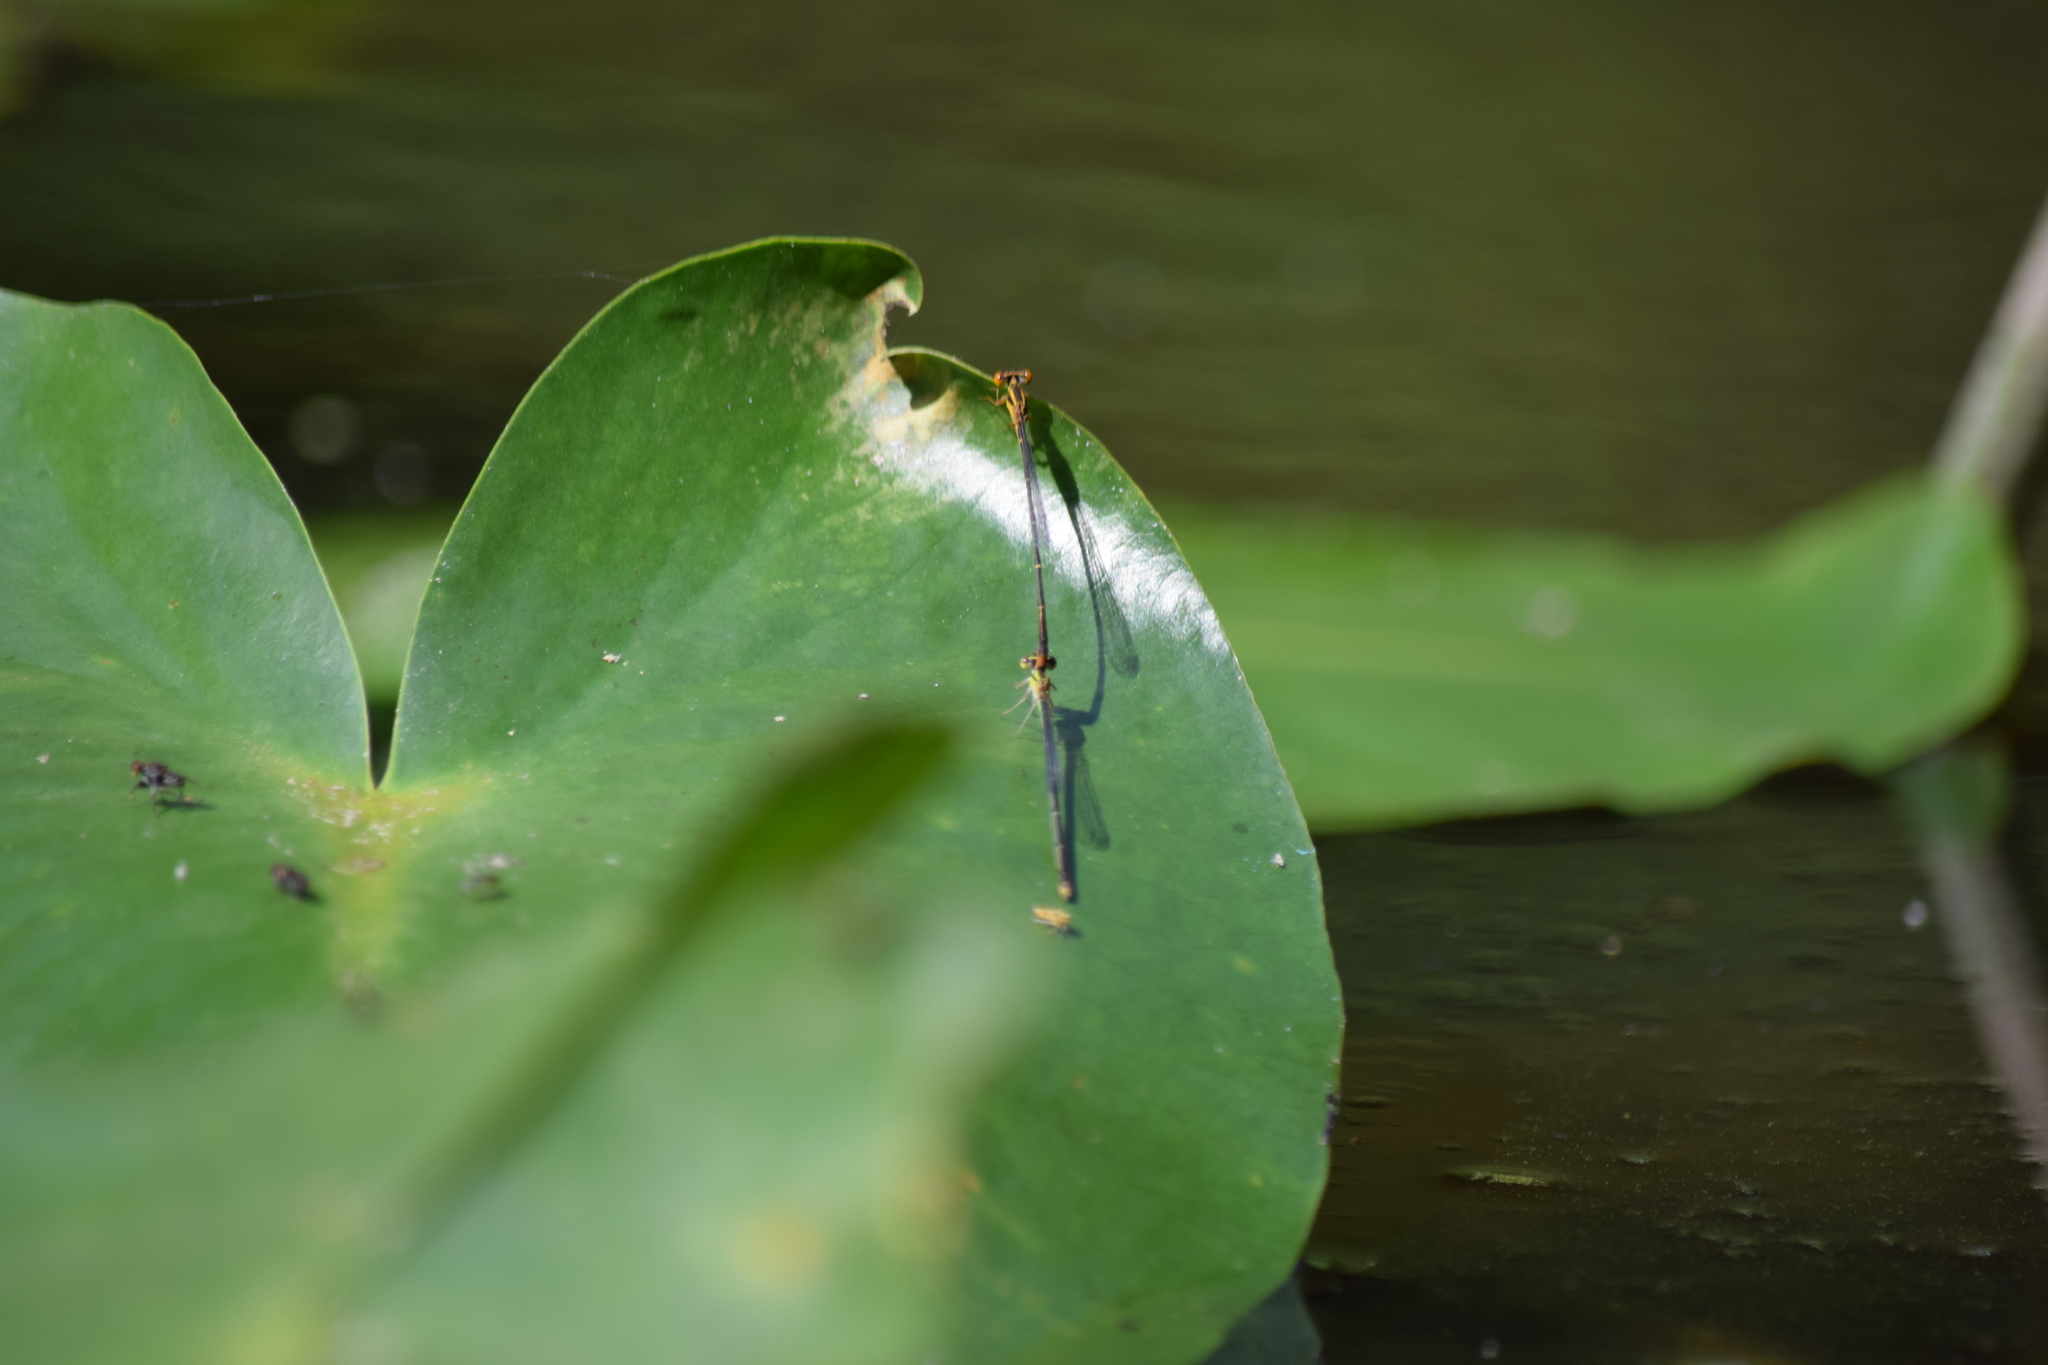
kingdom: Animalia
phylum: Arthropoda
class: Insecta
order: Odonata
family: Coenagrionidae
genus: Enallagma
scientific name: Enallagma signatum
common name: Orange bluet
